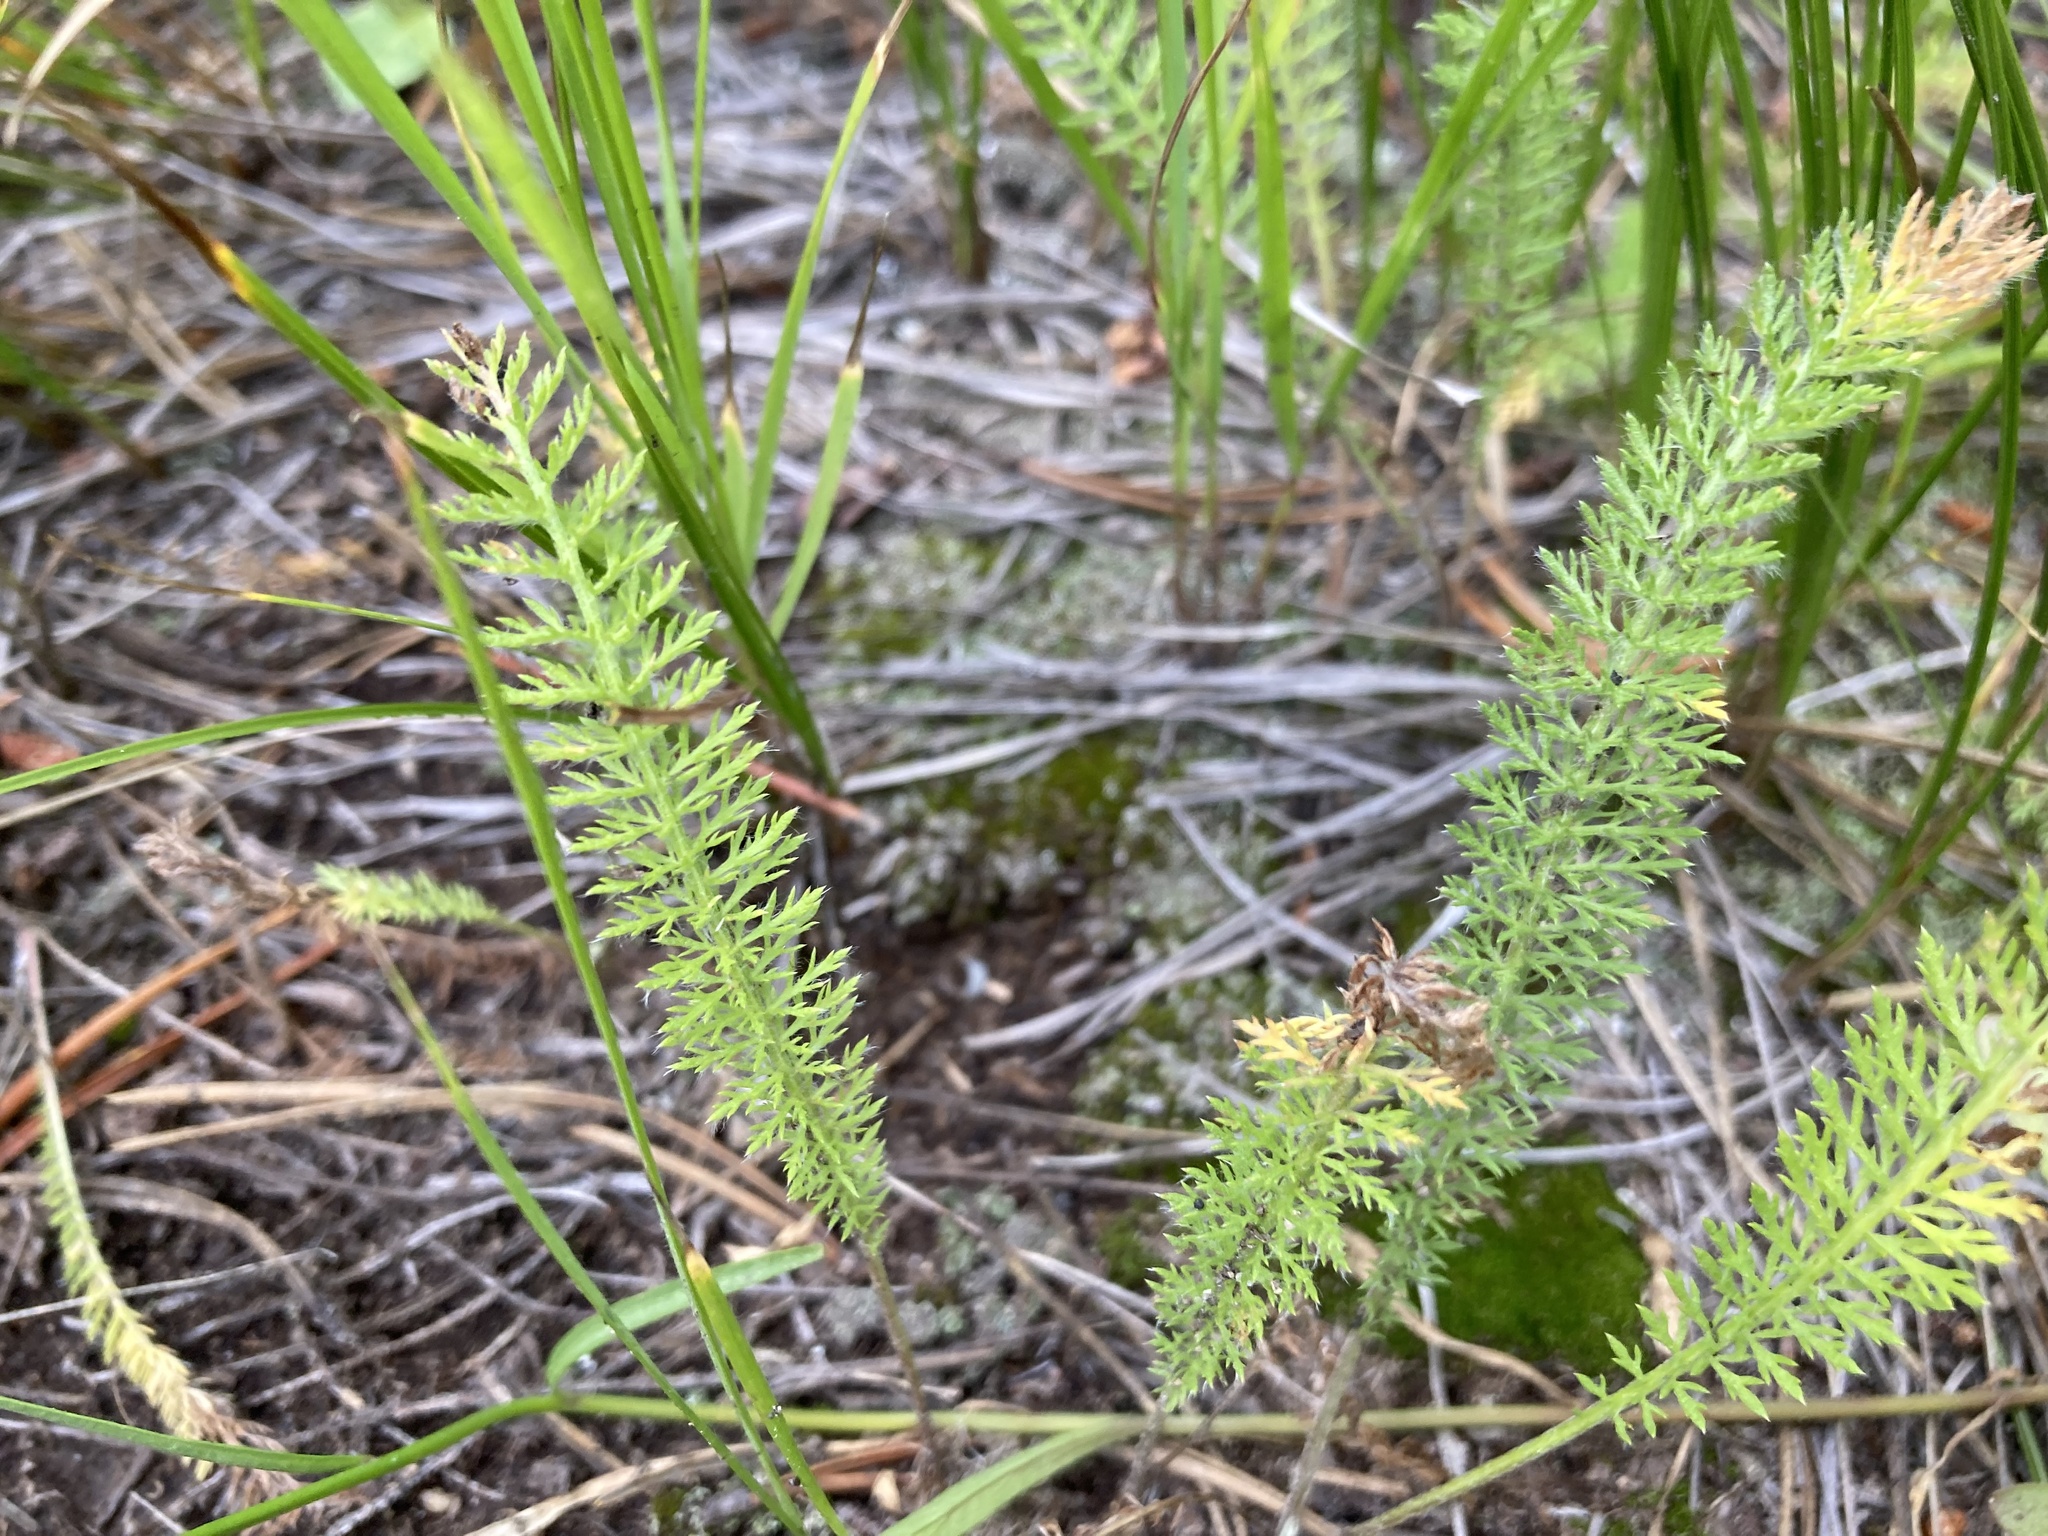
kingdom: Plantae
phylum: Tracheophyta
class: Magnoliopsida
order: Asterales
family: Asteraceae
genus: Achillea
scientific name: Achillea millefolium
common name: Yarrow
